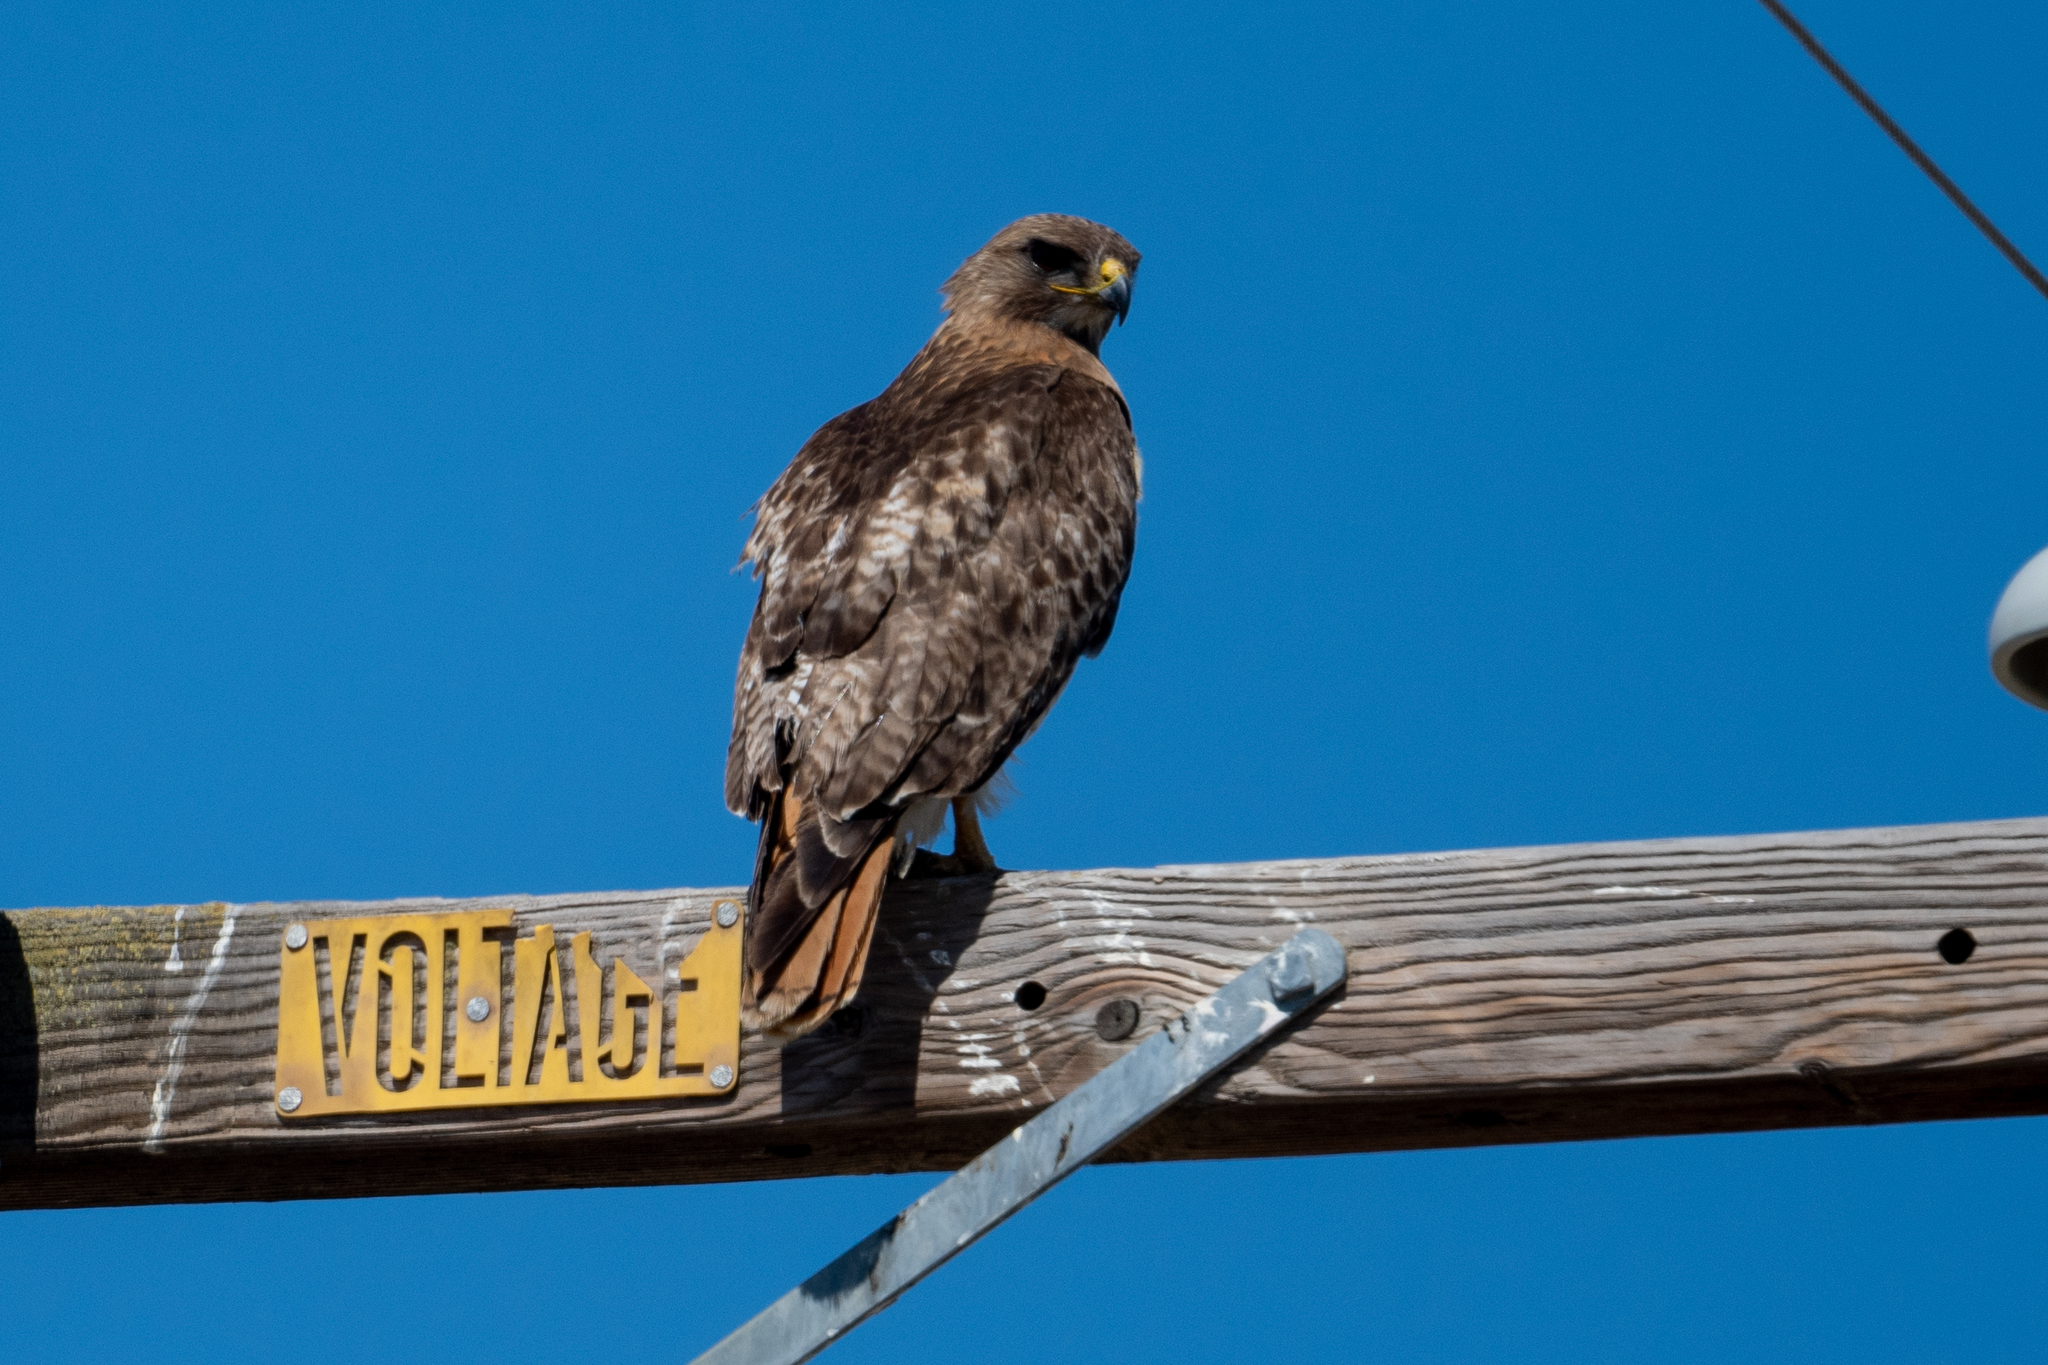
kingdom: Animalia
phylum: Chordata
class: Aves
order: Accipitriformes
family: Accipitridae
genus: Buteo
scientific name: Buteo jamaicensis
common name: Red-tailed hawk
